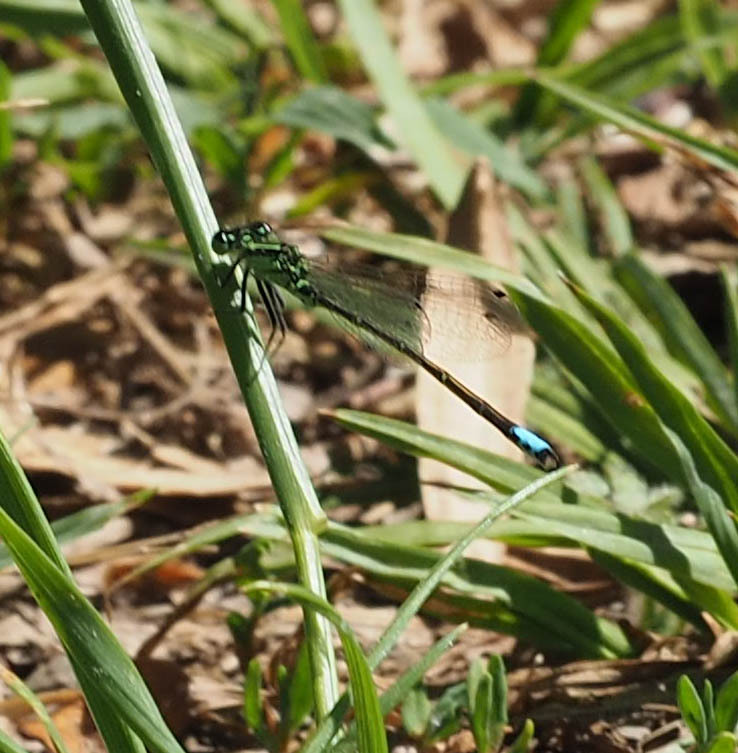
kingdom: Animalia
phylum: Arthropoda
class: Insecta
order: Odonata
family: Coenagrionidae
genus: Ischnura
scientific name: Ischnura verticalis
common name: Eastern forktail
